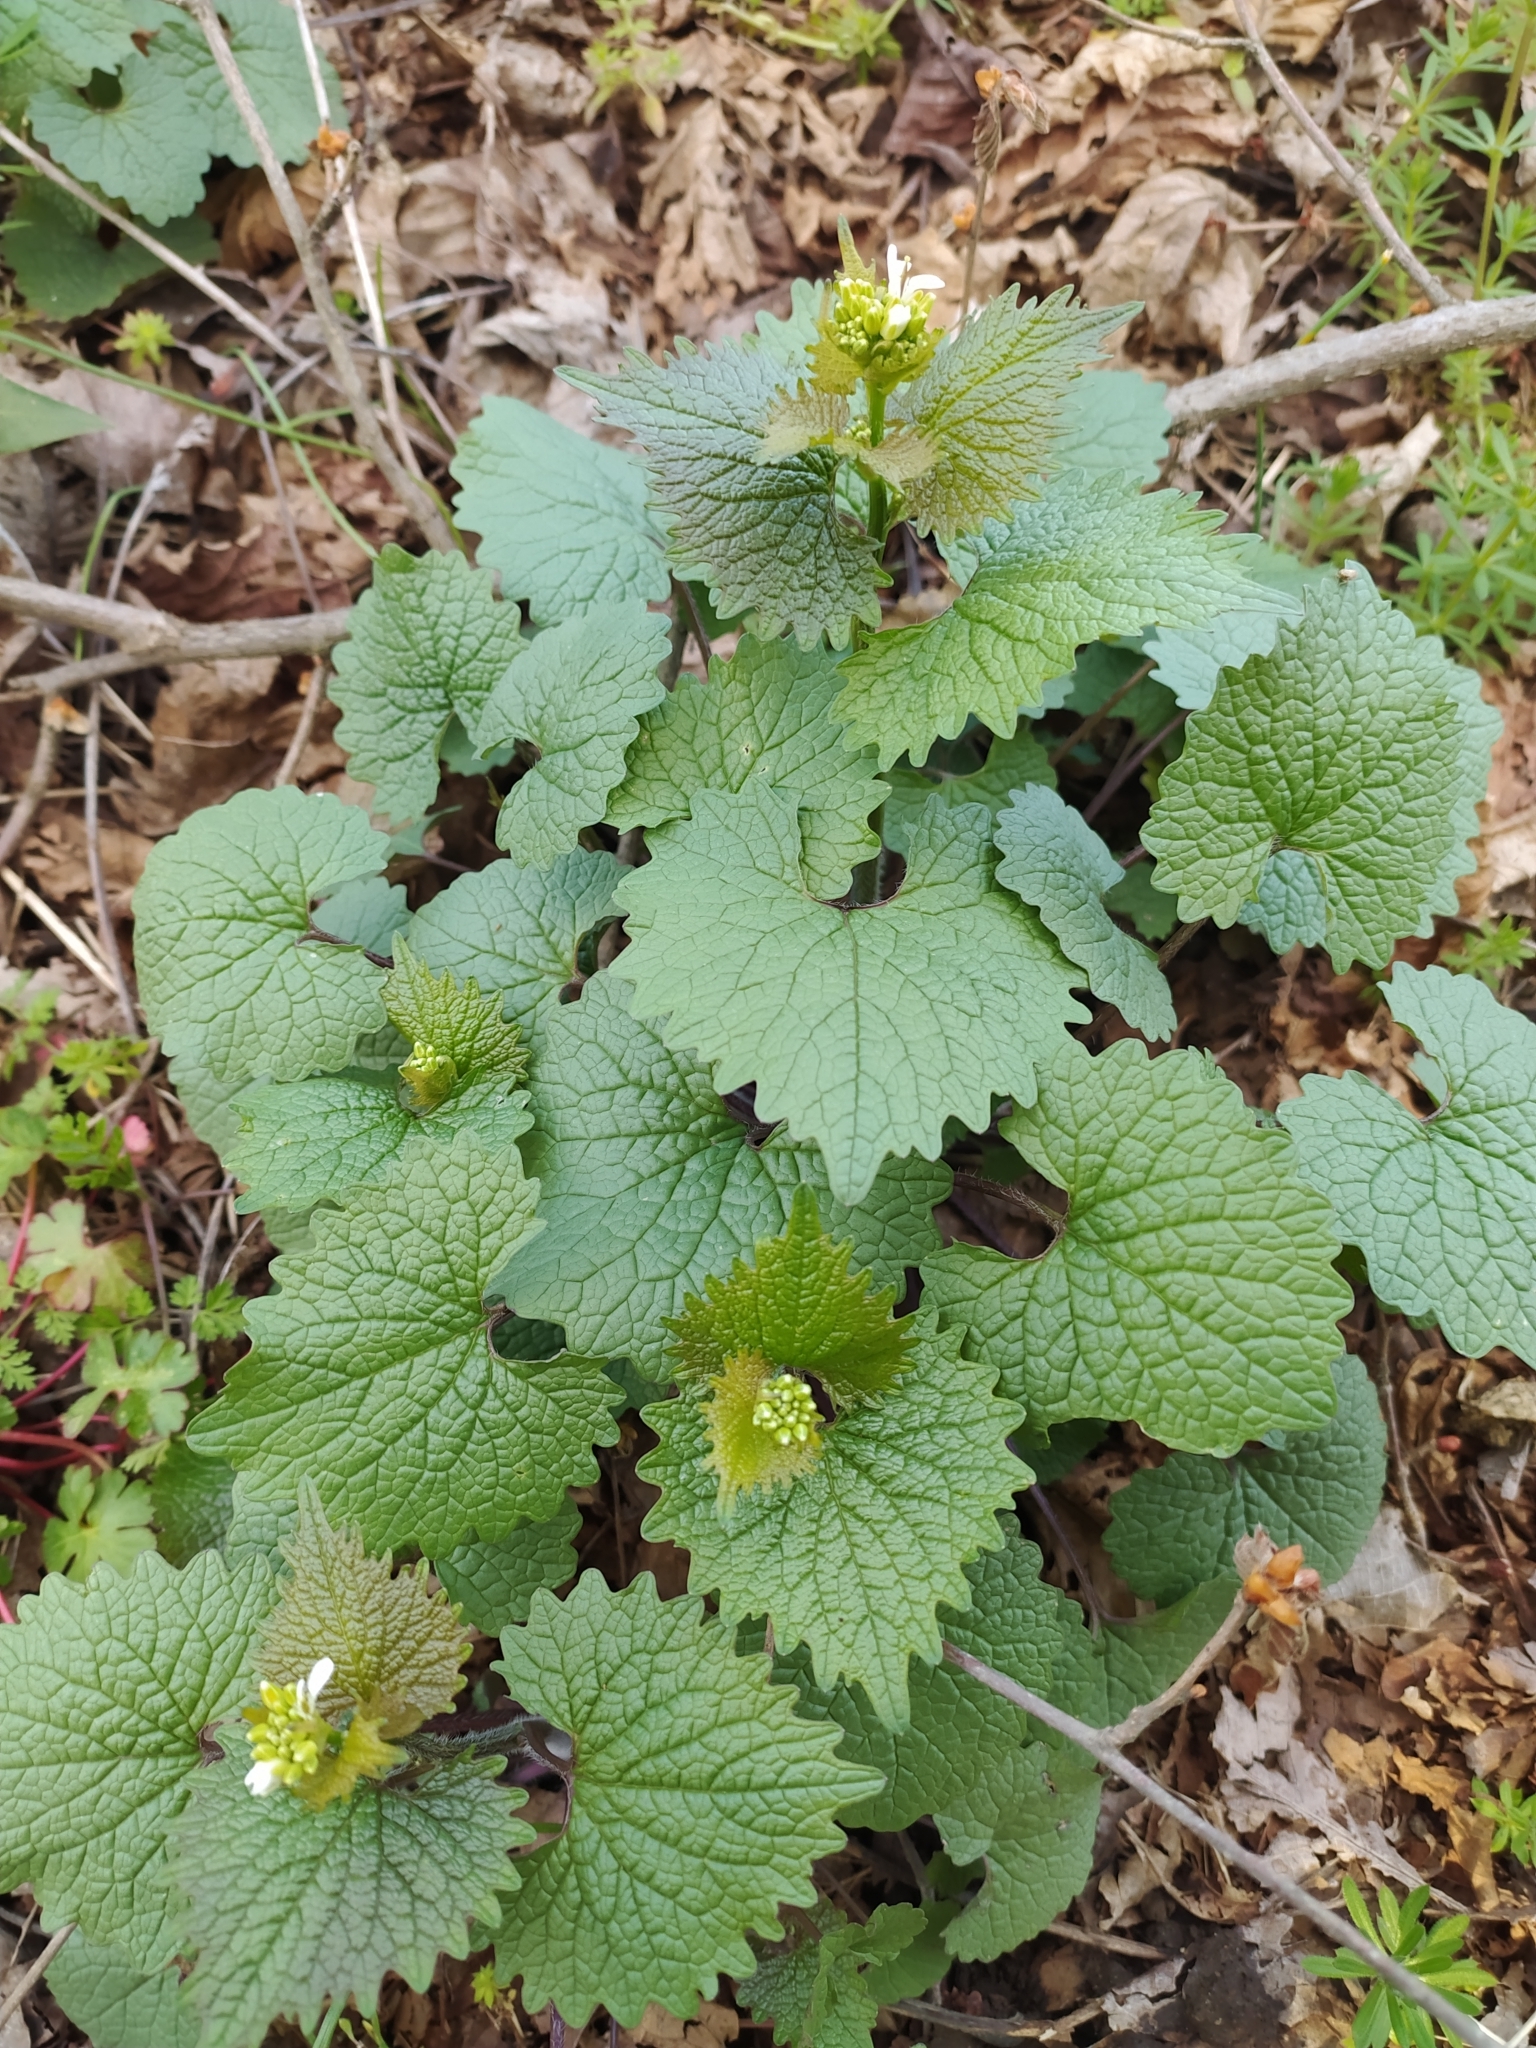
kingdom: Plantae
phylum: Tracheophyta
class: Magnoliopsida
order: Brassicales
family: Brassicaceae
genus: Alliaria
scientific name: Alliaria petiolata
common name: Garlic mustard
